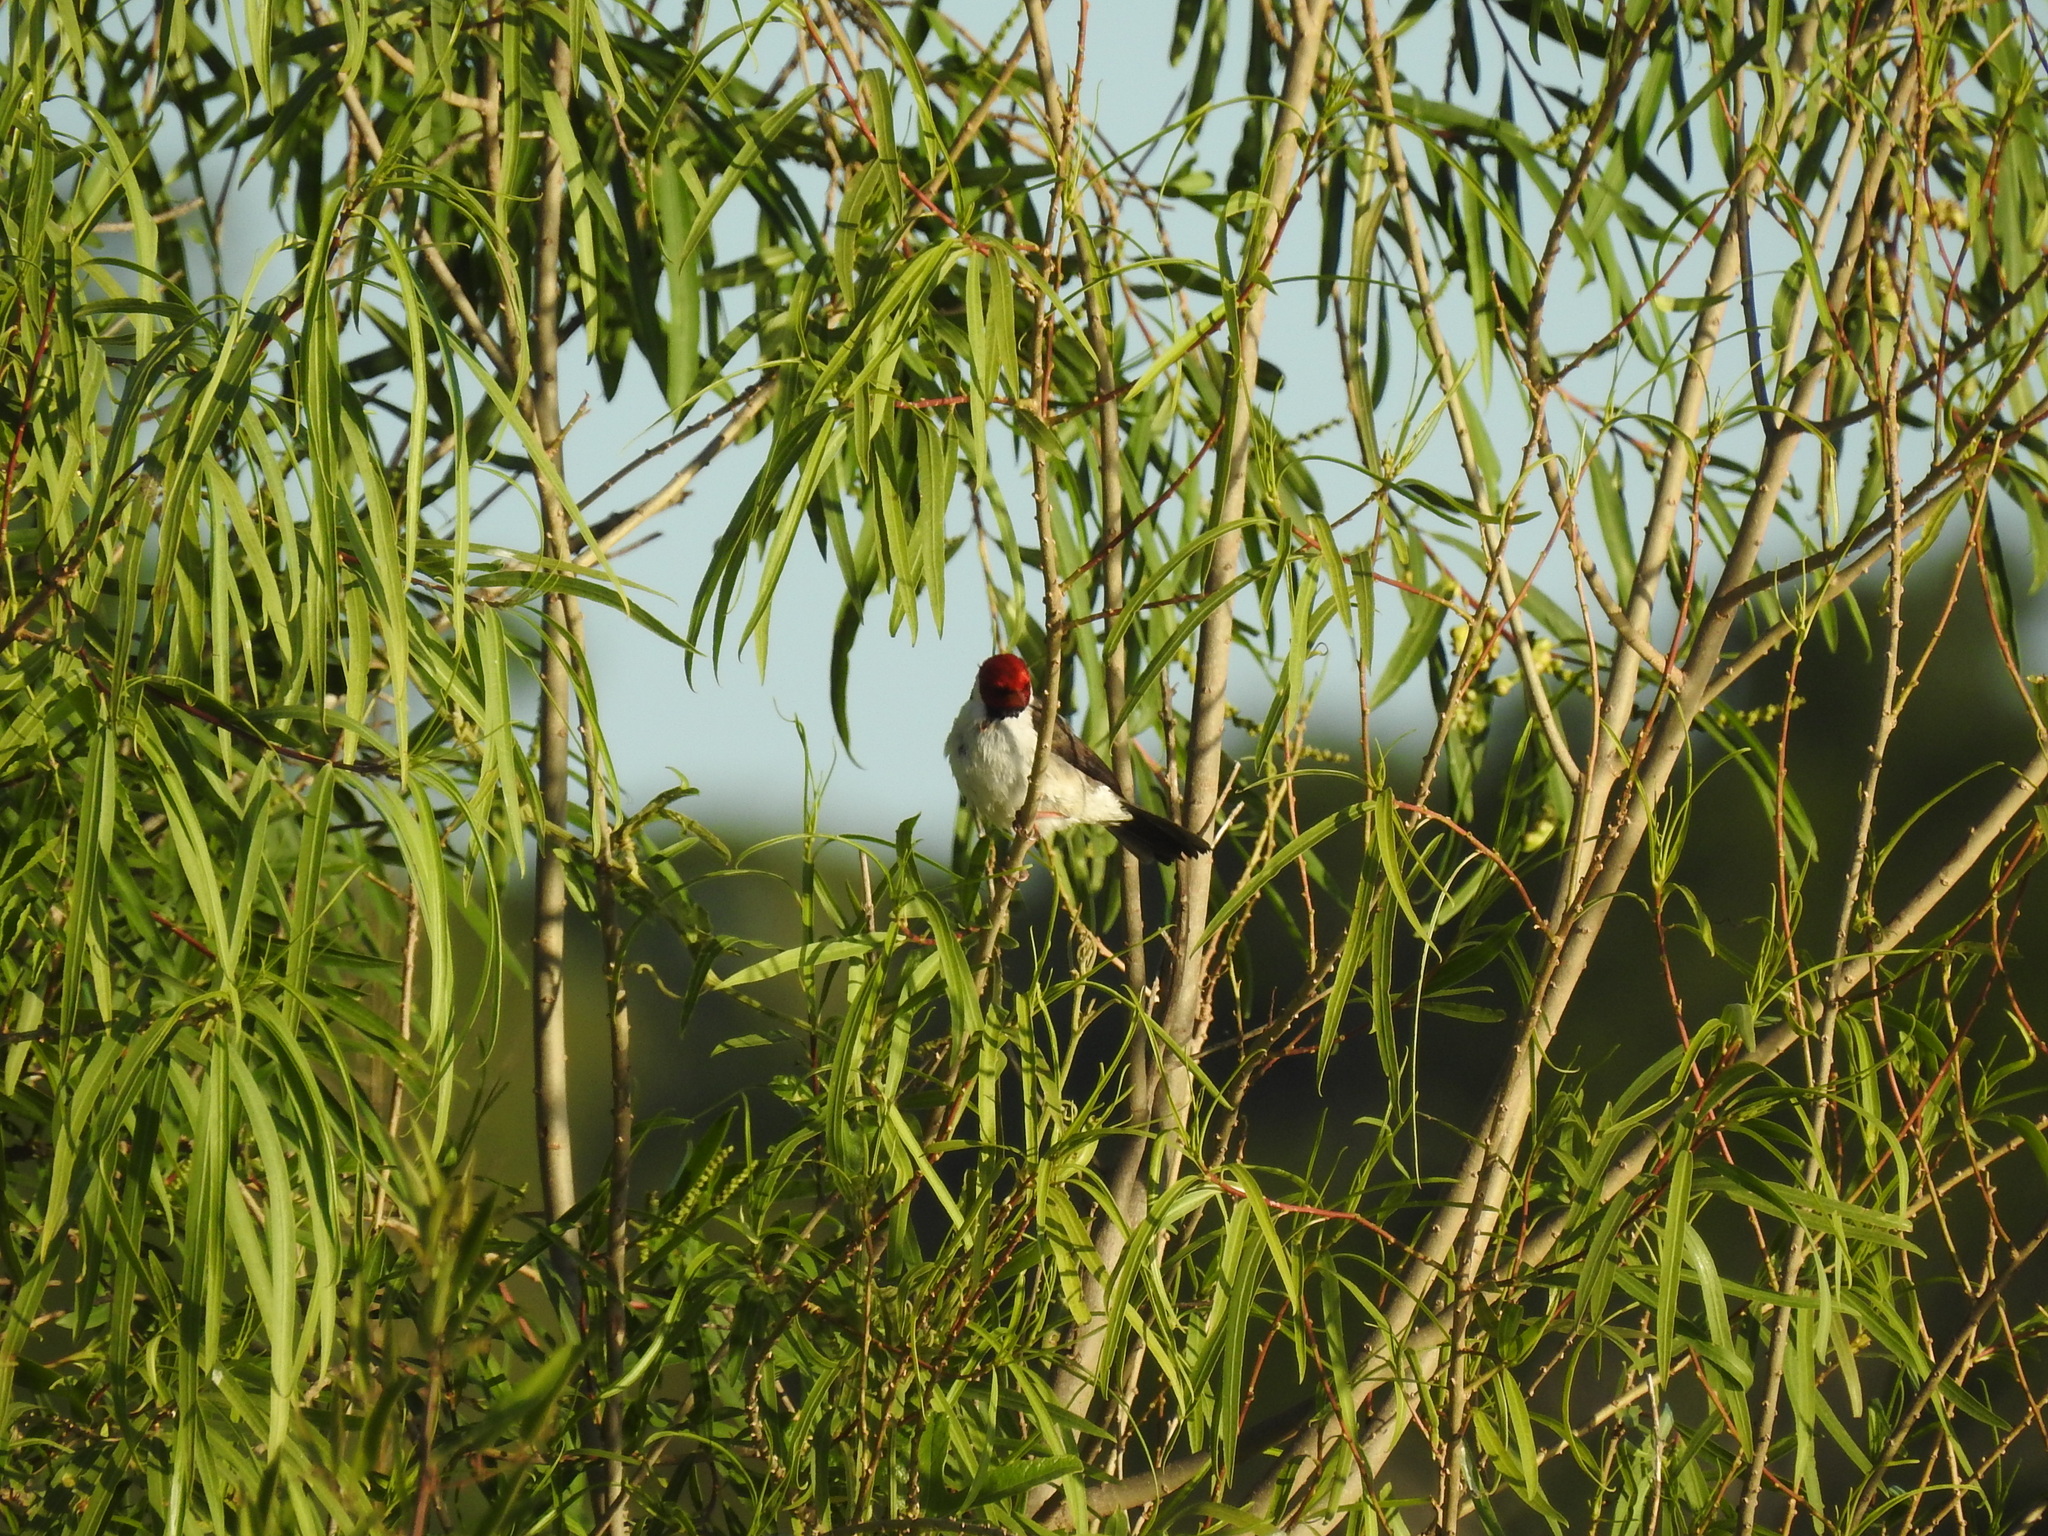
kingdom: Animalia
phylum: Chordata
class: Aves
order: Passeriformes
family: Thraupidae
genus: Paroaria
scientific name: Paroaria capitata
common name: Yellow-billed cardinal
